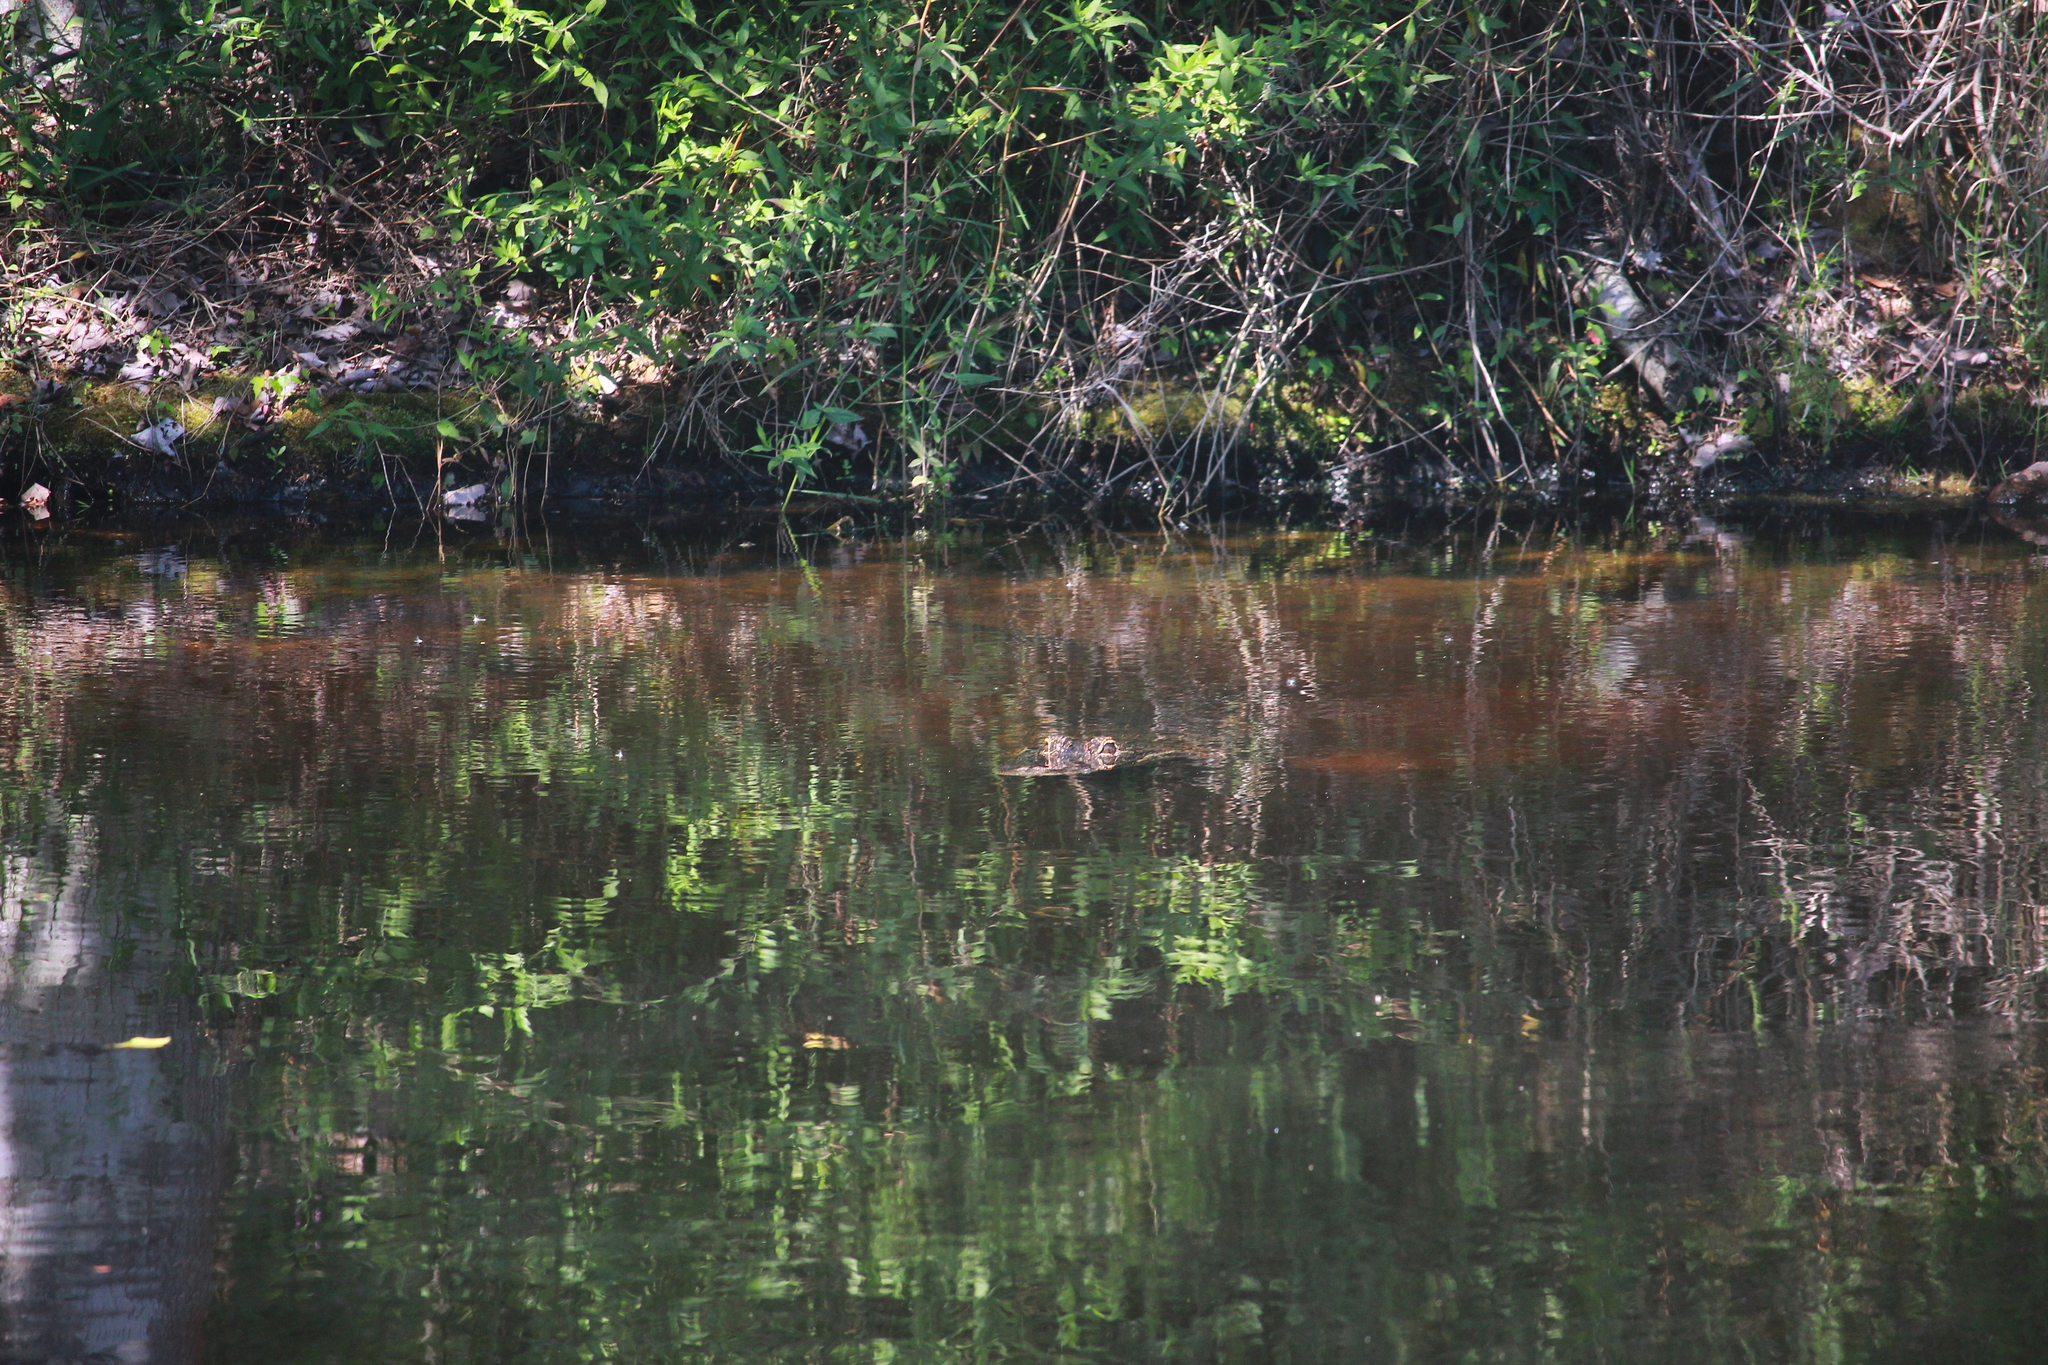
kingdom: Animalia
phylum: Chordata
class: Crocodylia
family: Alligatoridae
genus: Alligator
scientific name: Alligator mississippiensis
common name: American alligator
